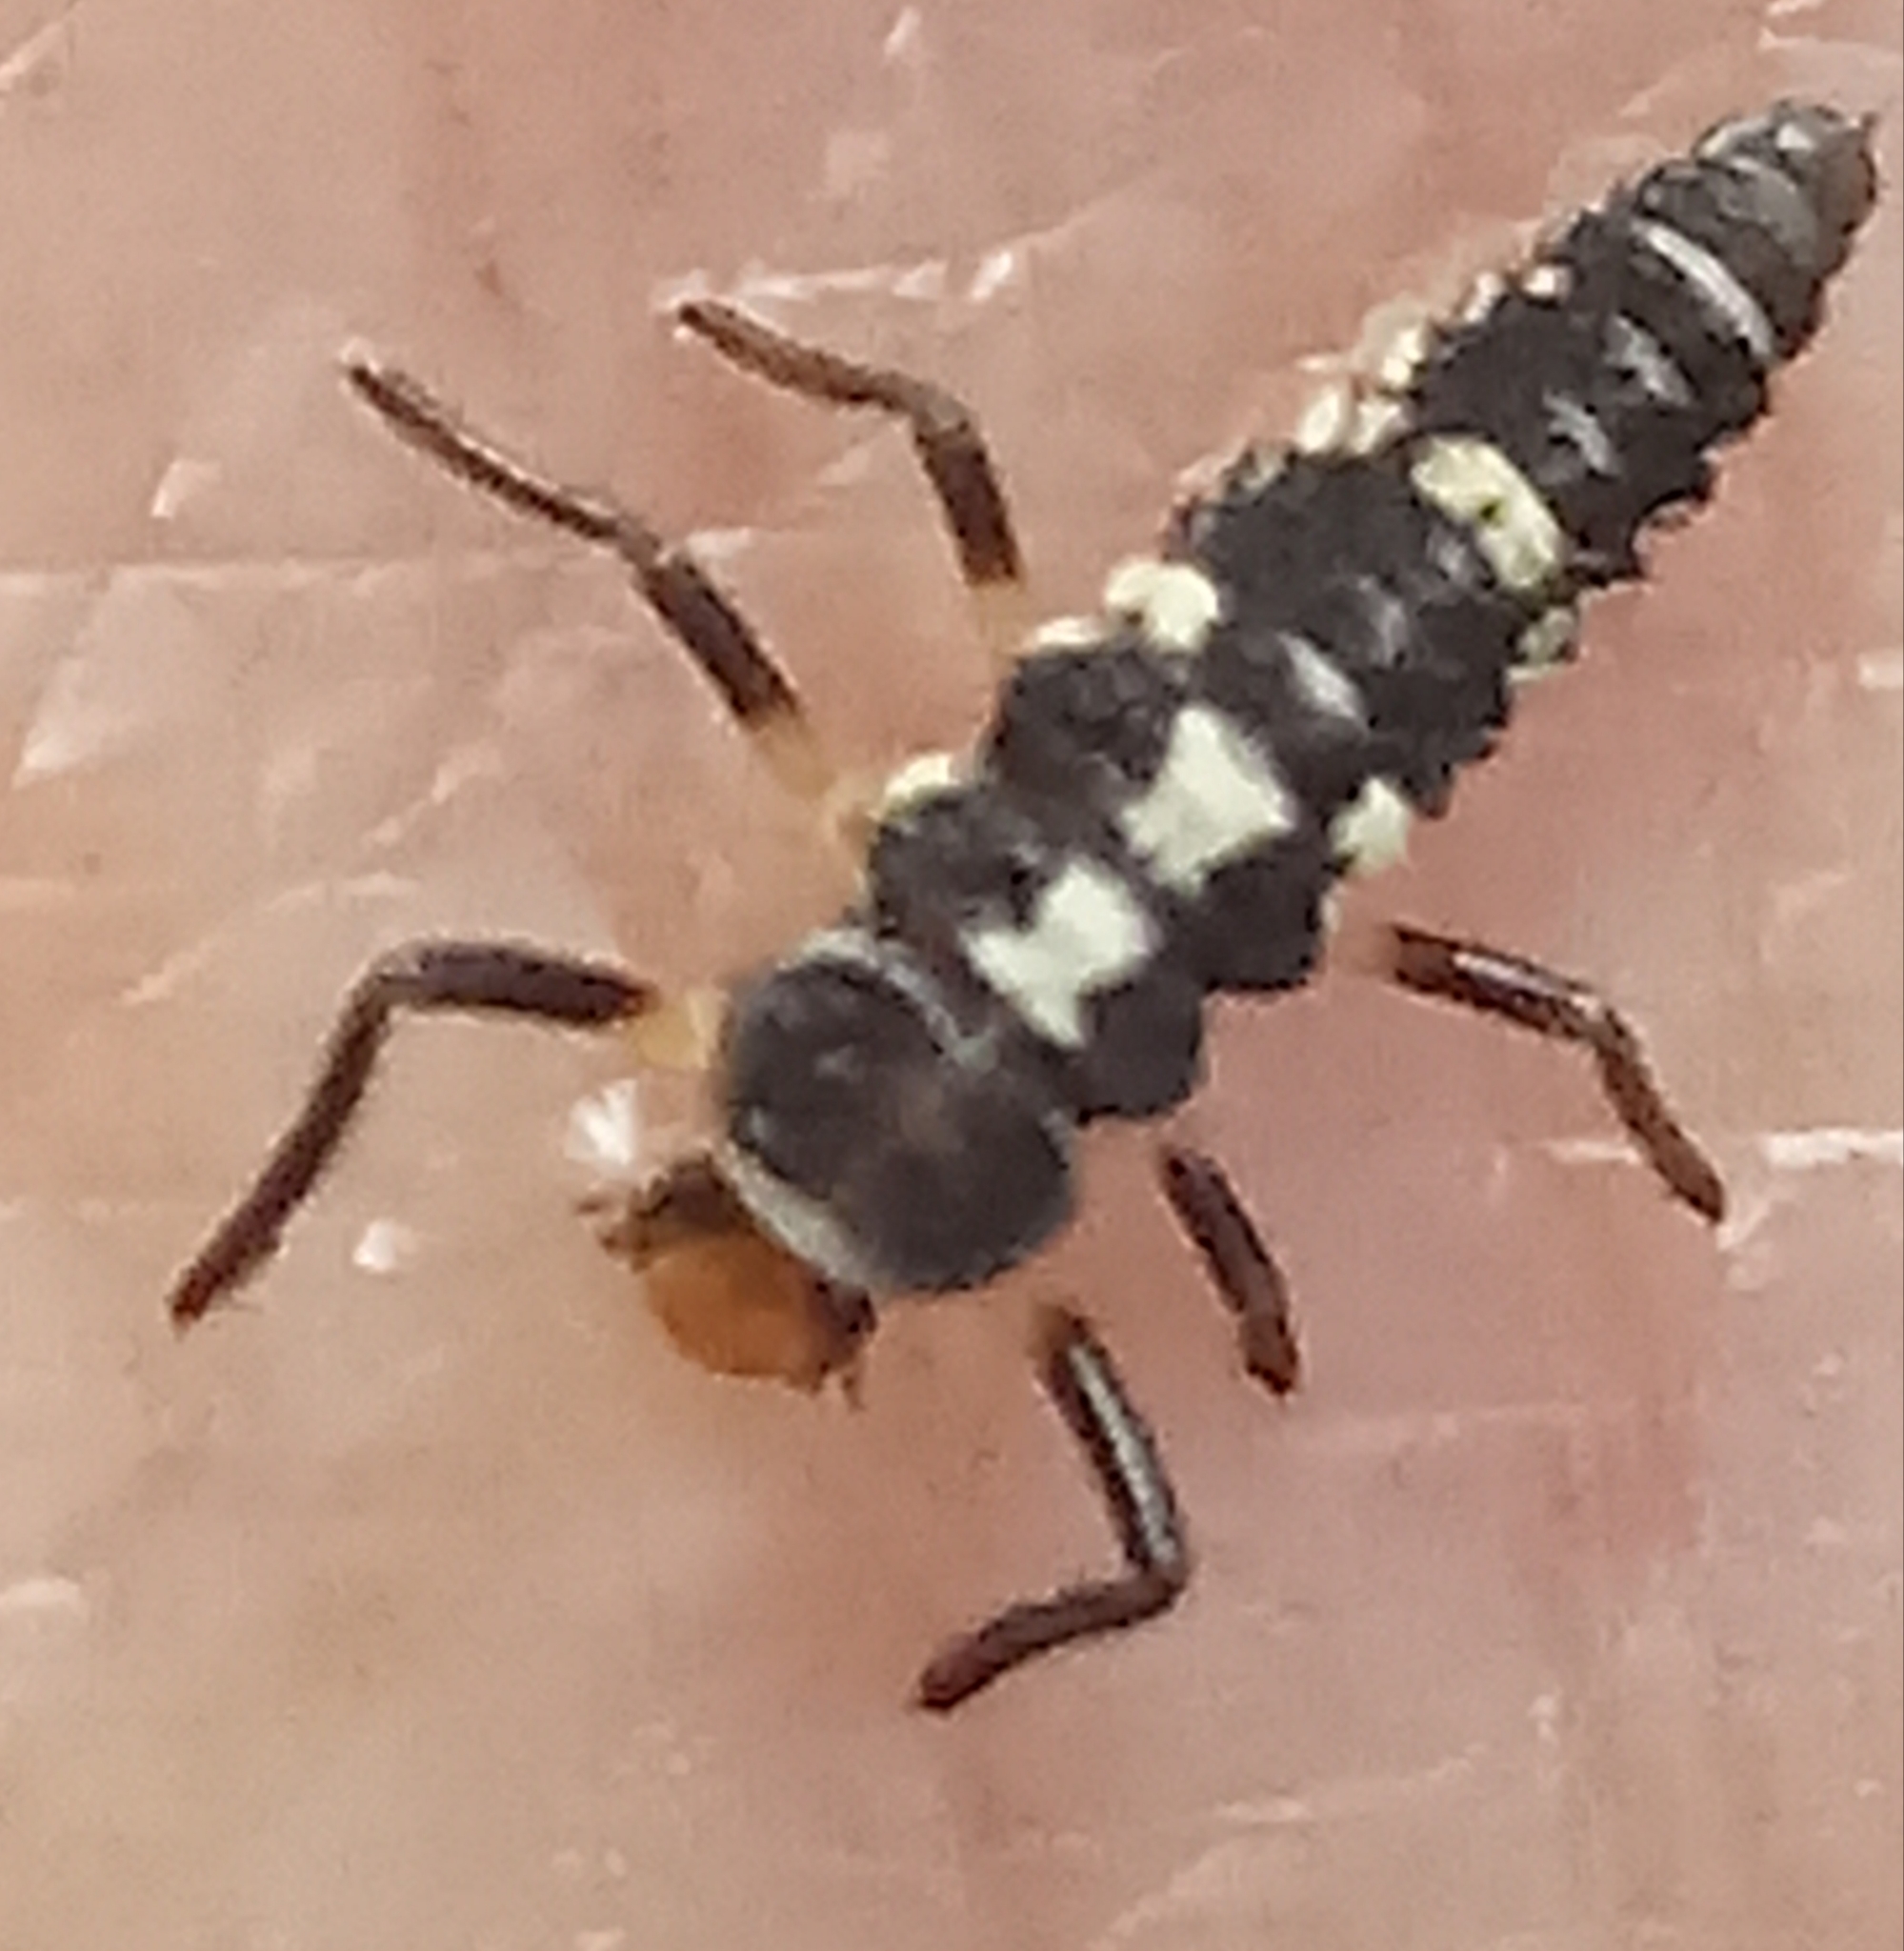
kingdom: Animalia
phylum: Arthropoda
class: Insecta
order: Coleoptera
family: Coccinellidae
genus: Propylaea
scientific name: Propylaea quatuordecimpunctata
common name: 14-spotted ladybird beetle
